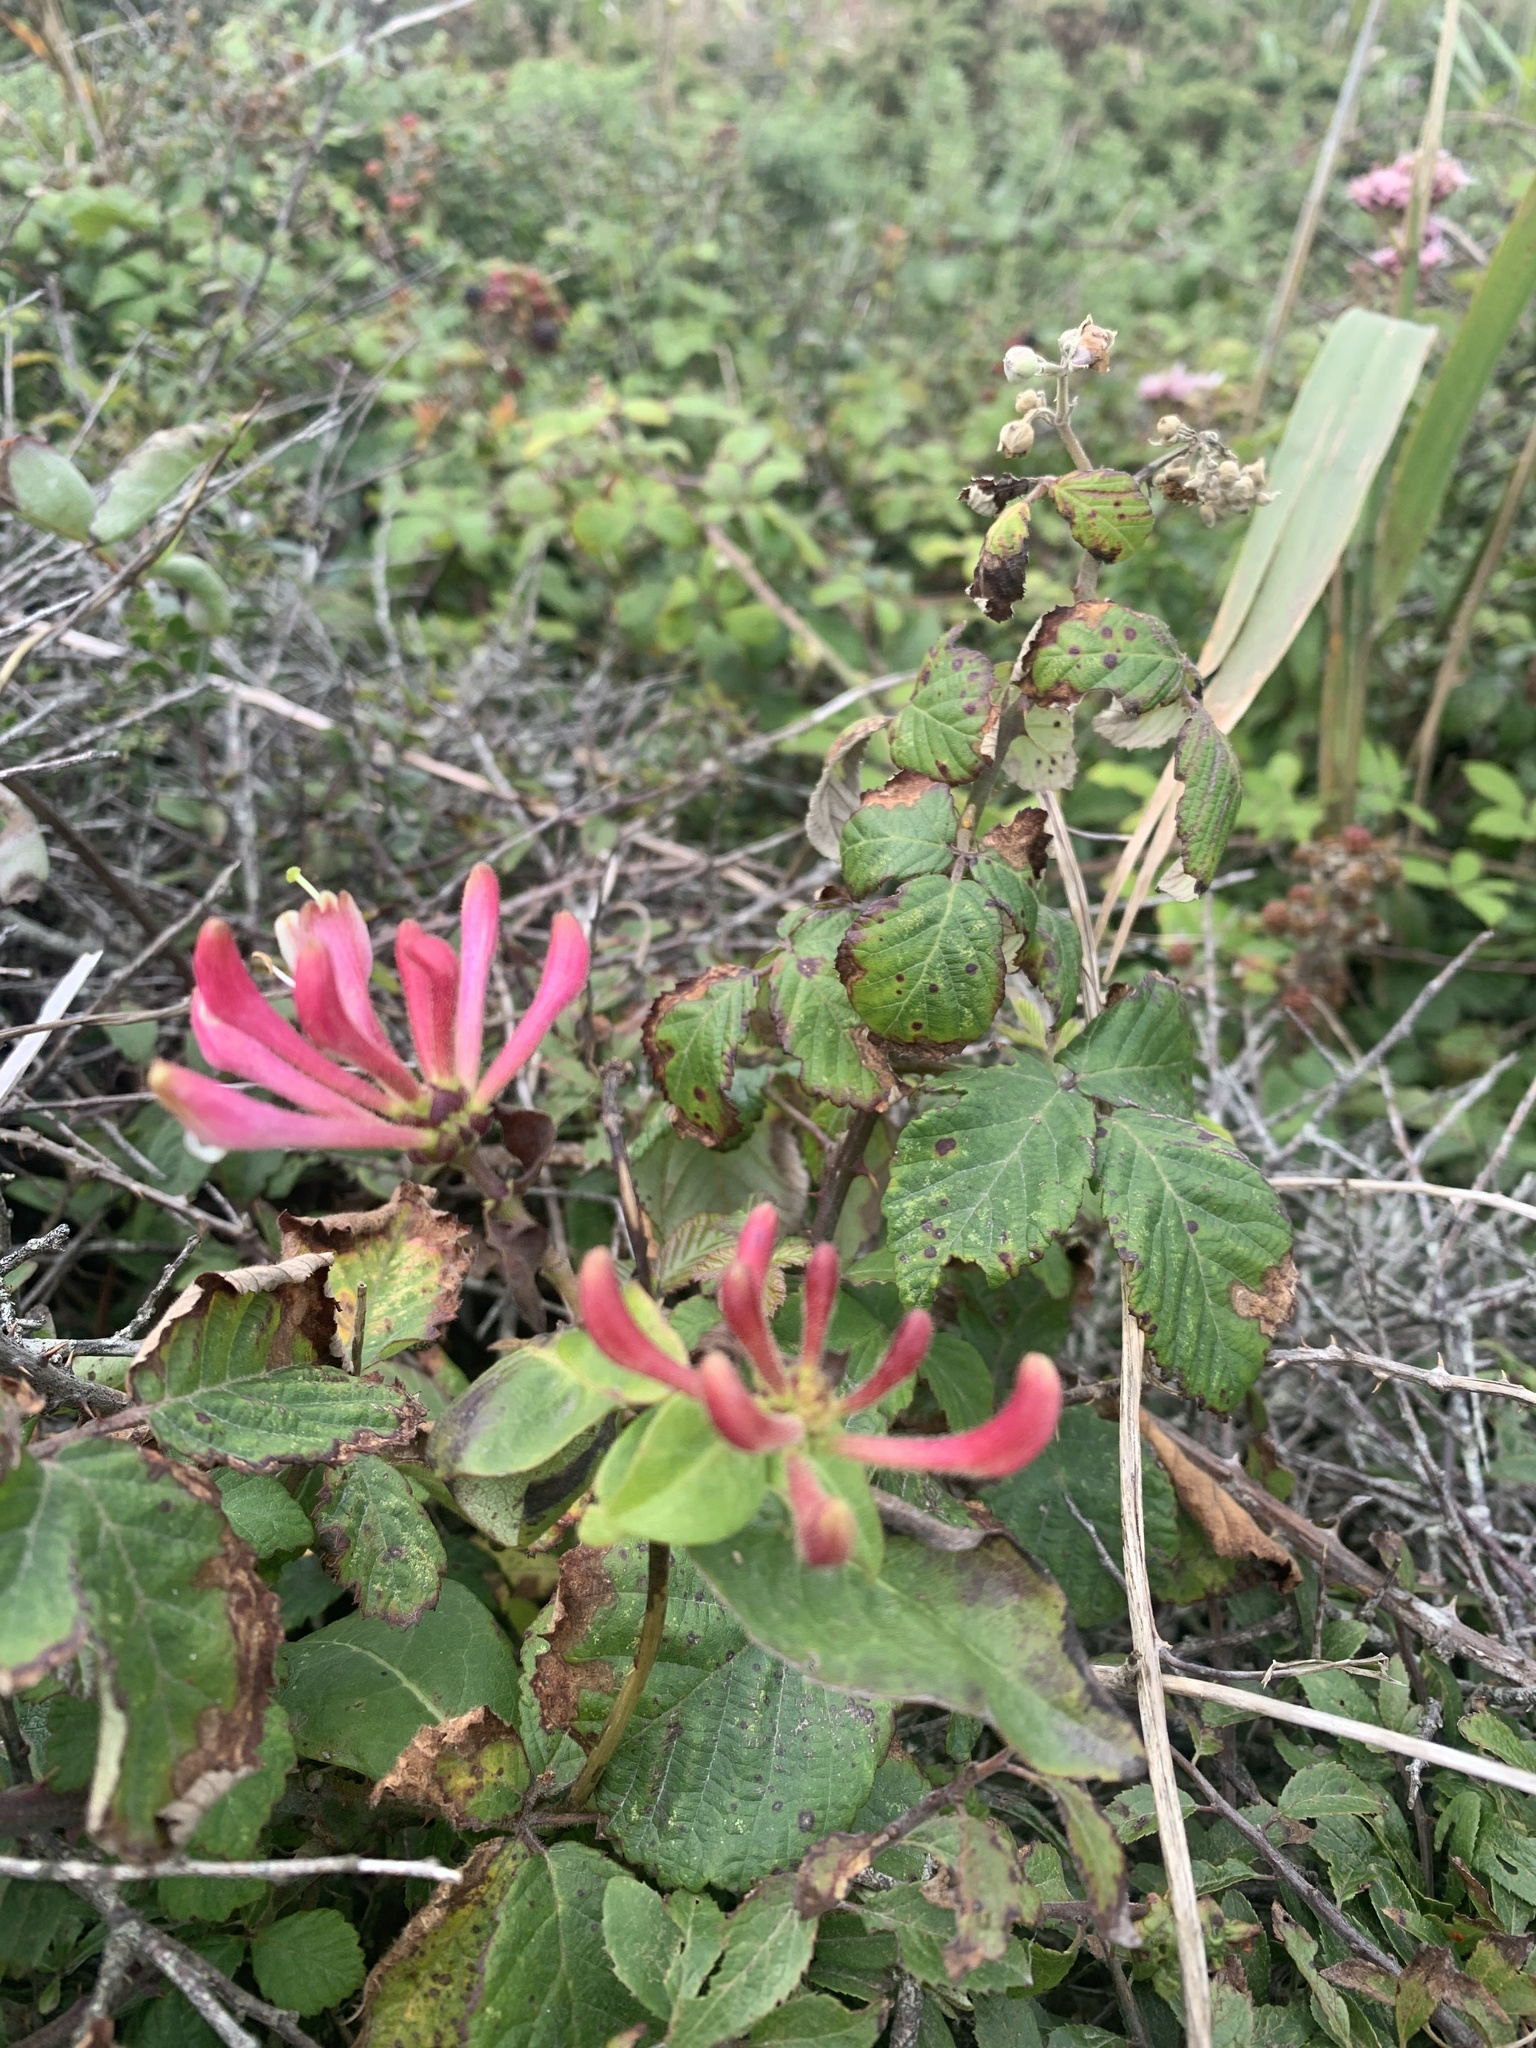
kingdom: Plantae
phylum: Tracheophyta
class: Magnoliopsida
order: Dipsacales
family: Caprifoliaceae
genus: Lonicera
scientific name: Lonicera periclymenum
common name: European honeysuckle
